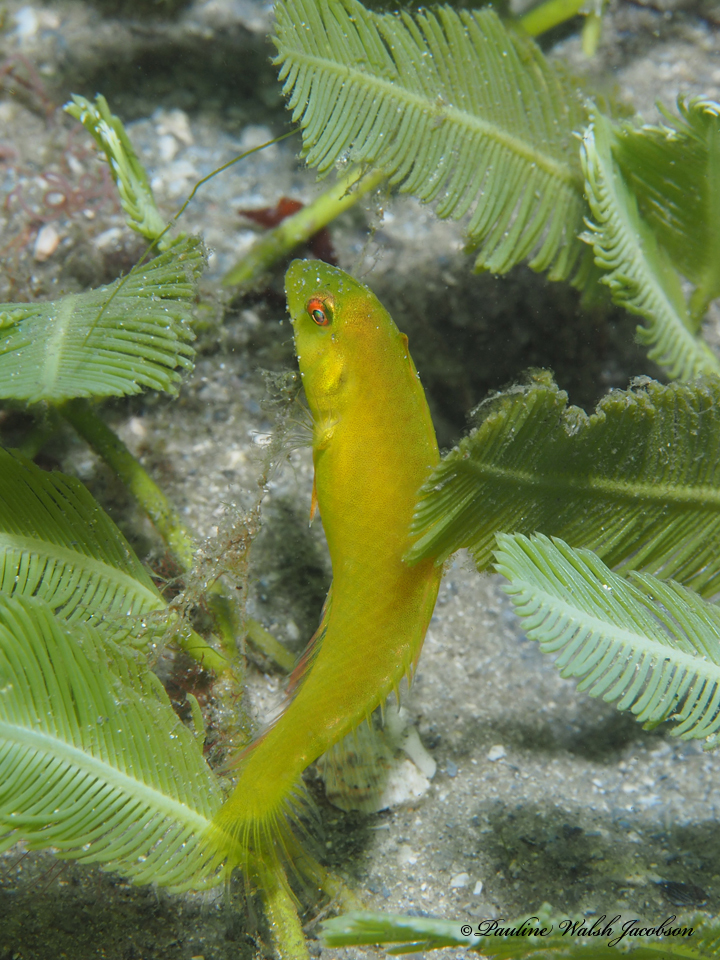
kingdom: Animalia
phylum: Chordata
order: Perciformes
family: Labridae
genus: Xyrichtys
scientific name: Xyrichtys splendens
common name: Green razorfish
